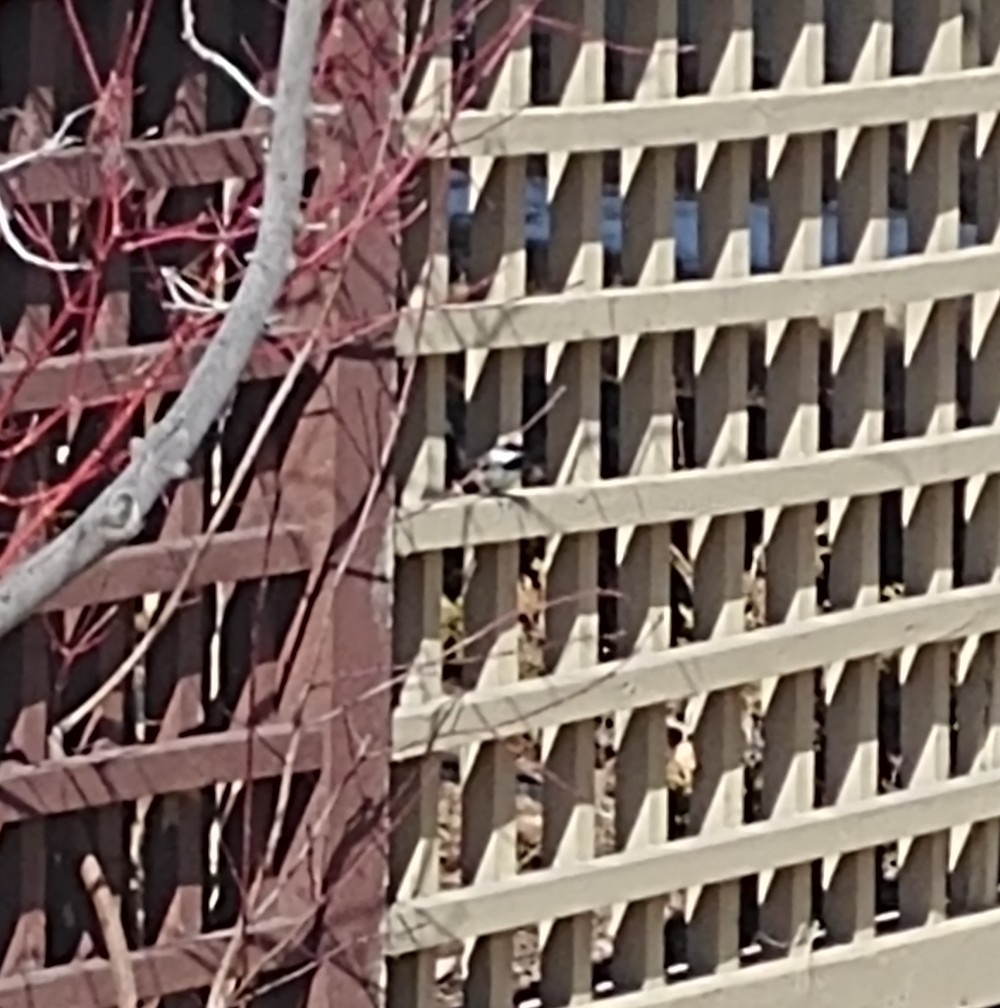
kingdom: Animalia
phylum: Chordata
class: Aves
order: Passeriformes
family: Paridae
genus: Poecile
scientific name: Poecile atricapillus
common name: Black-capped chickadee
